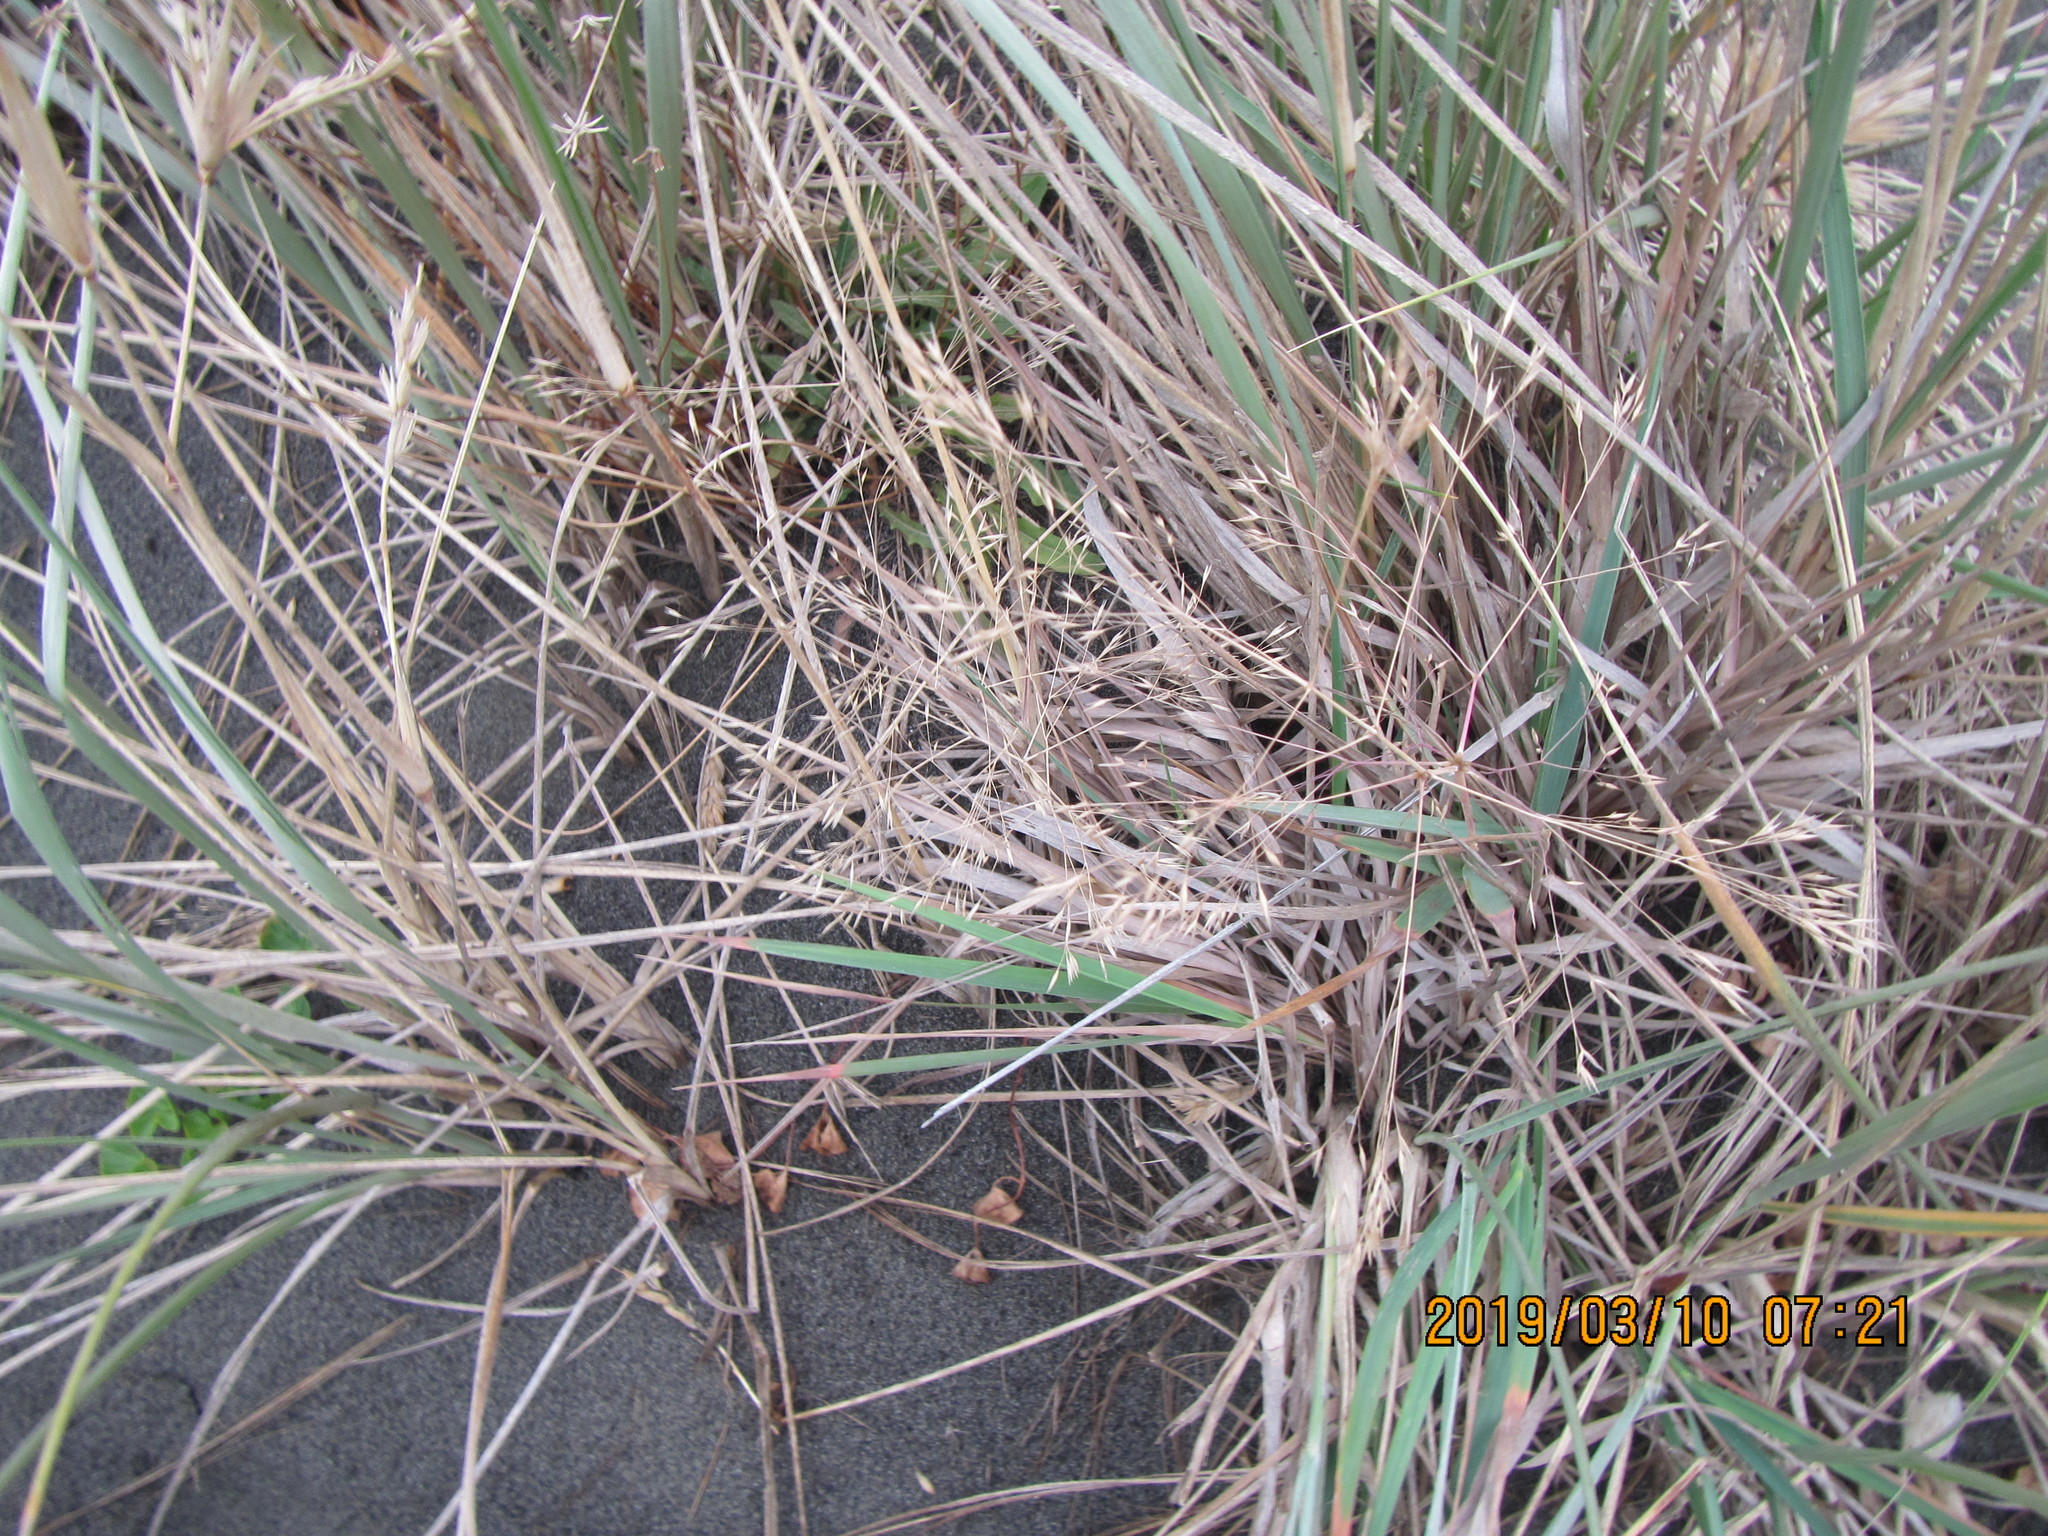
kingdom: Plantae
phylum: Tracheophyta
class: Liliopsida
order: Poales
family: Poaceae
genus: Lachnagrostis
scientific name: Lachnagrostis billardierei
